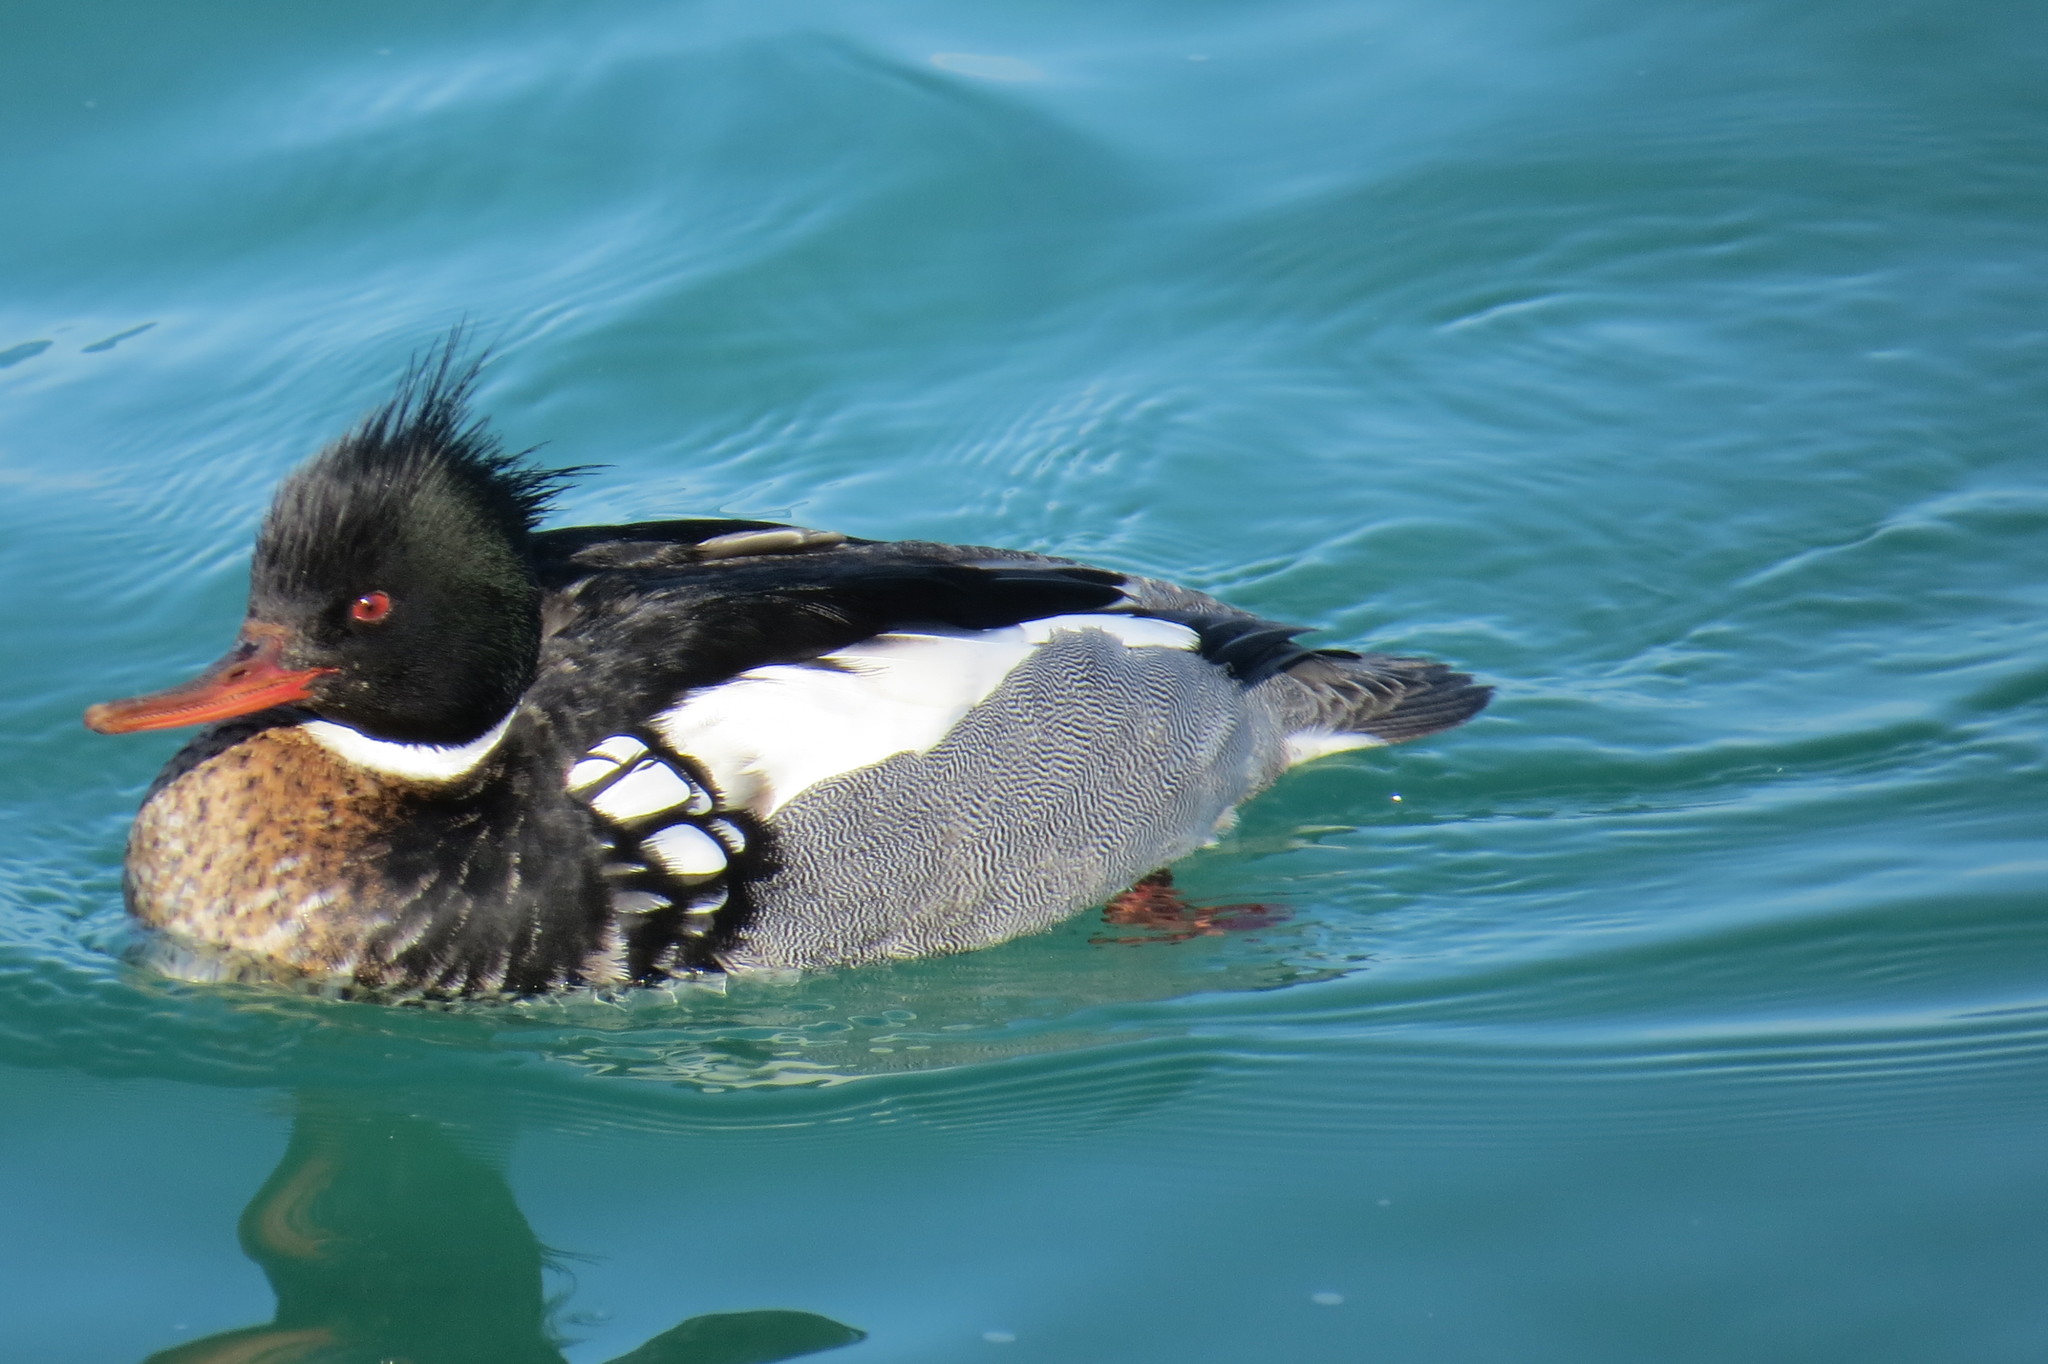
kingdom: Animalia
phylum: Chordata
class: Aves
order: Anseriformes
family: Anatidae
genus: Mergus
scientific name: Mergus serrator
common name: Red-breasted merganser
